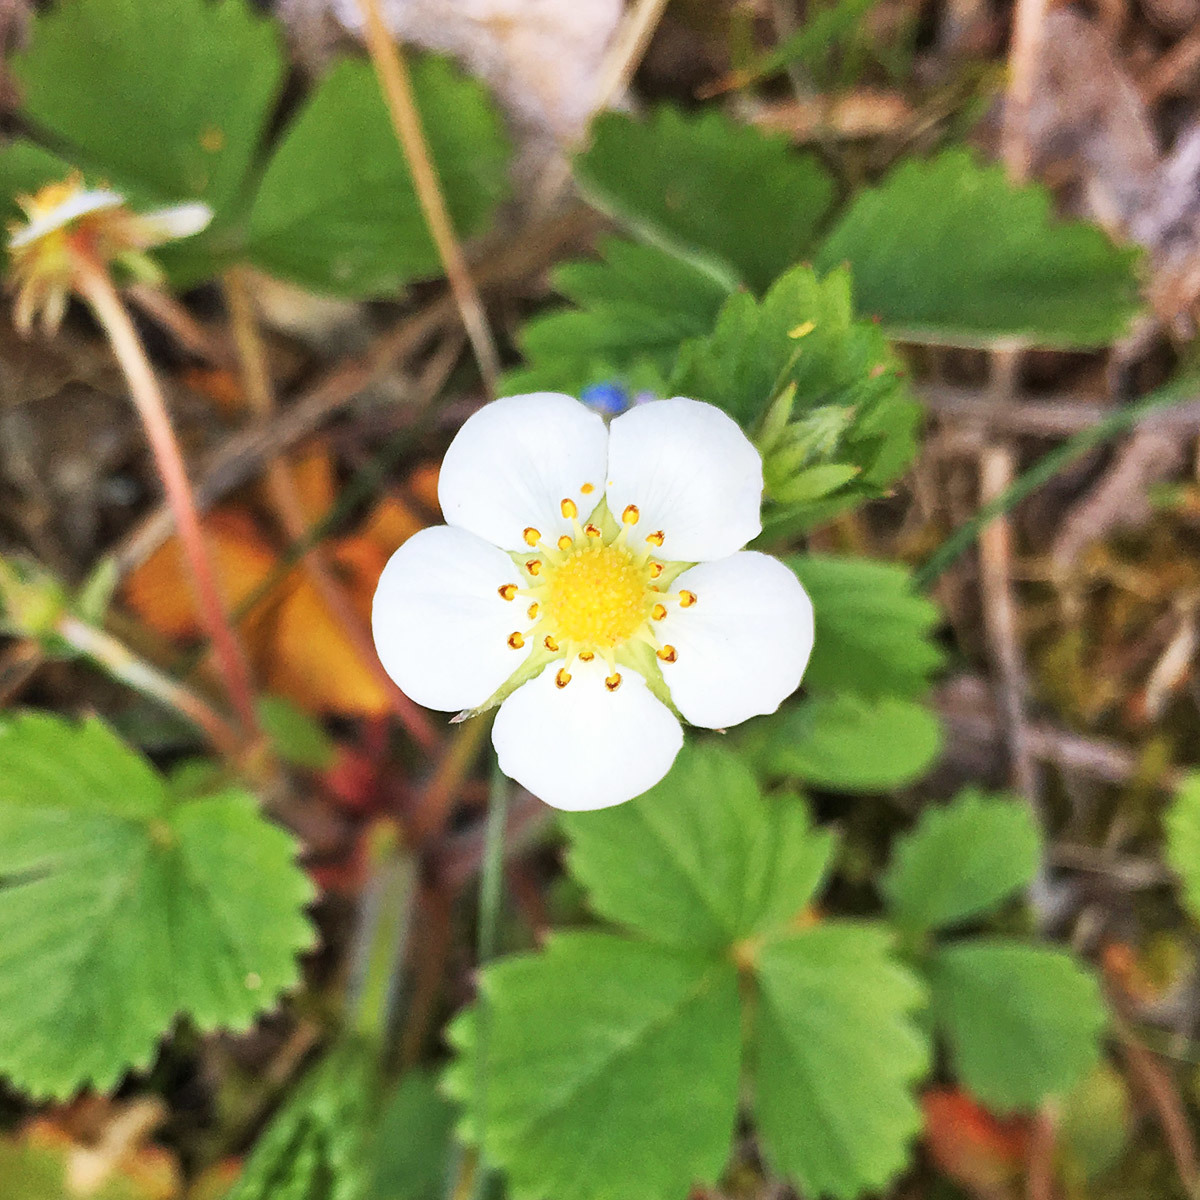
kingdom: Plantae
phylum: Tracheophyta
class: Magnoliopsida
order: Rosales
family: Rosaceae
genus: Fragaria
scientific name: Fragaria vesca
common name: Wild strawberry
